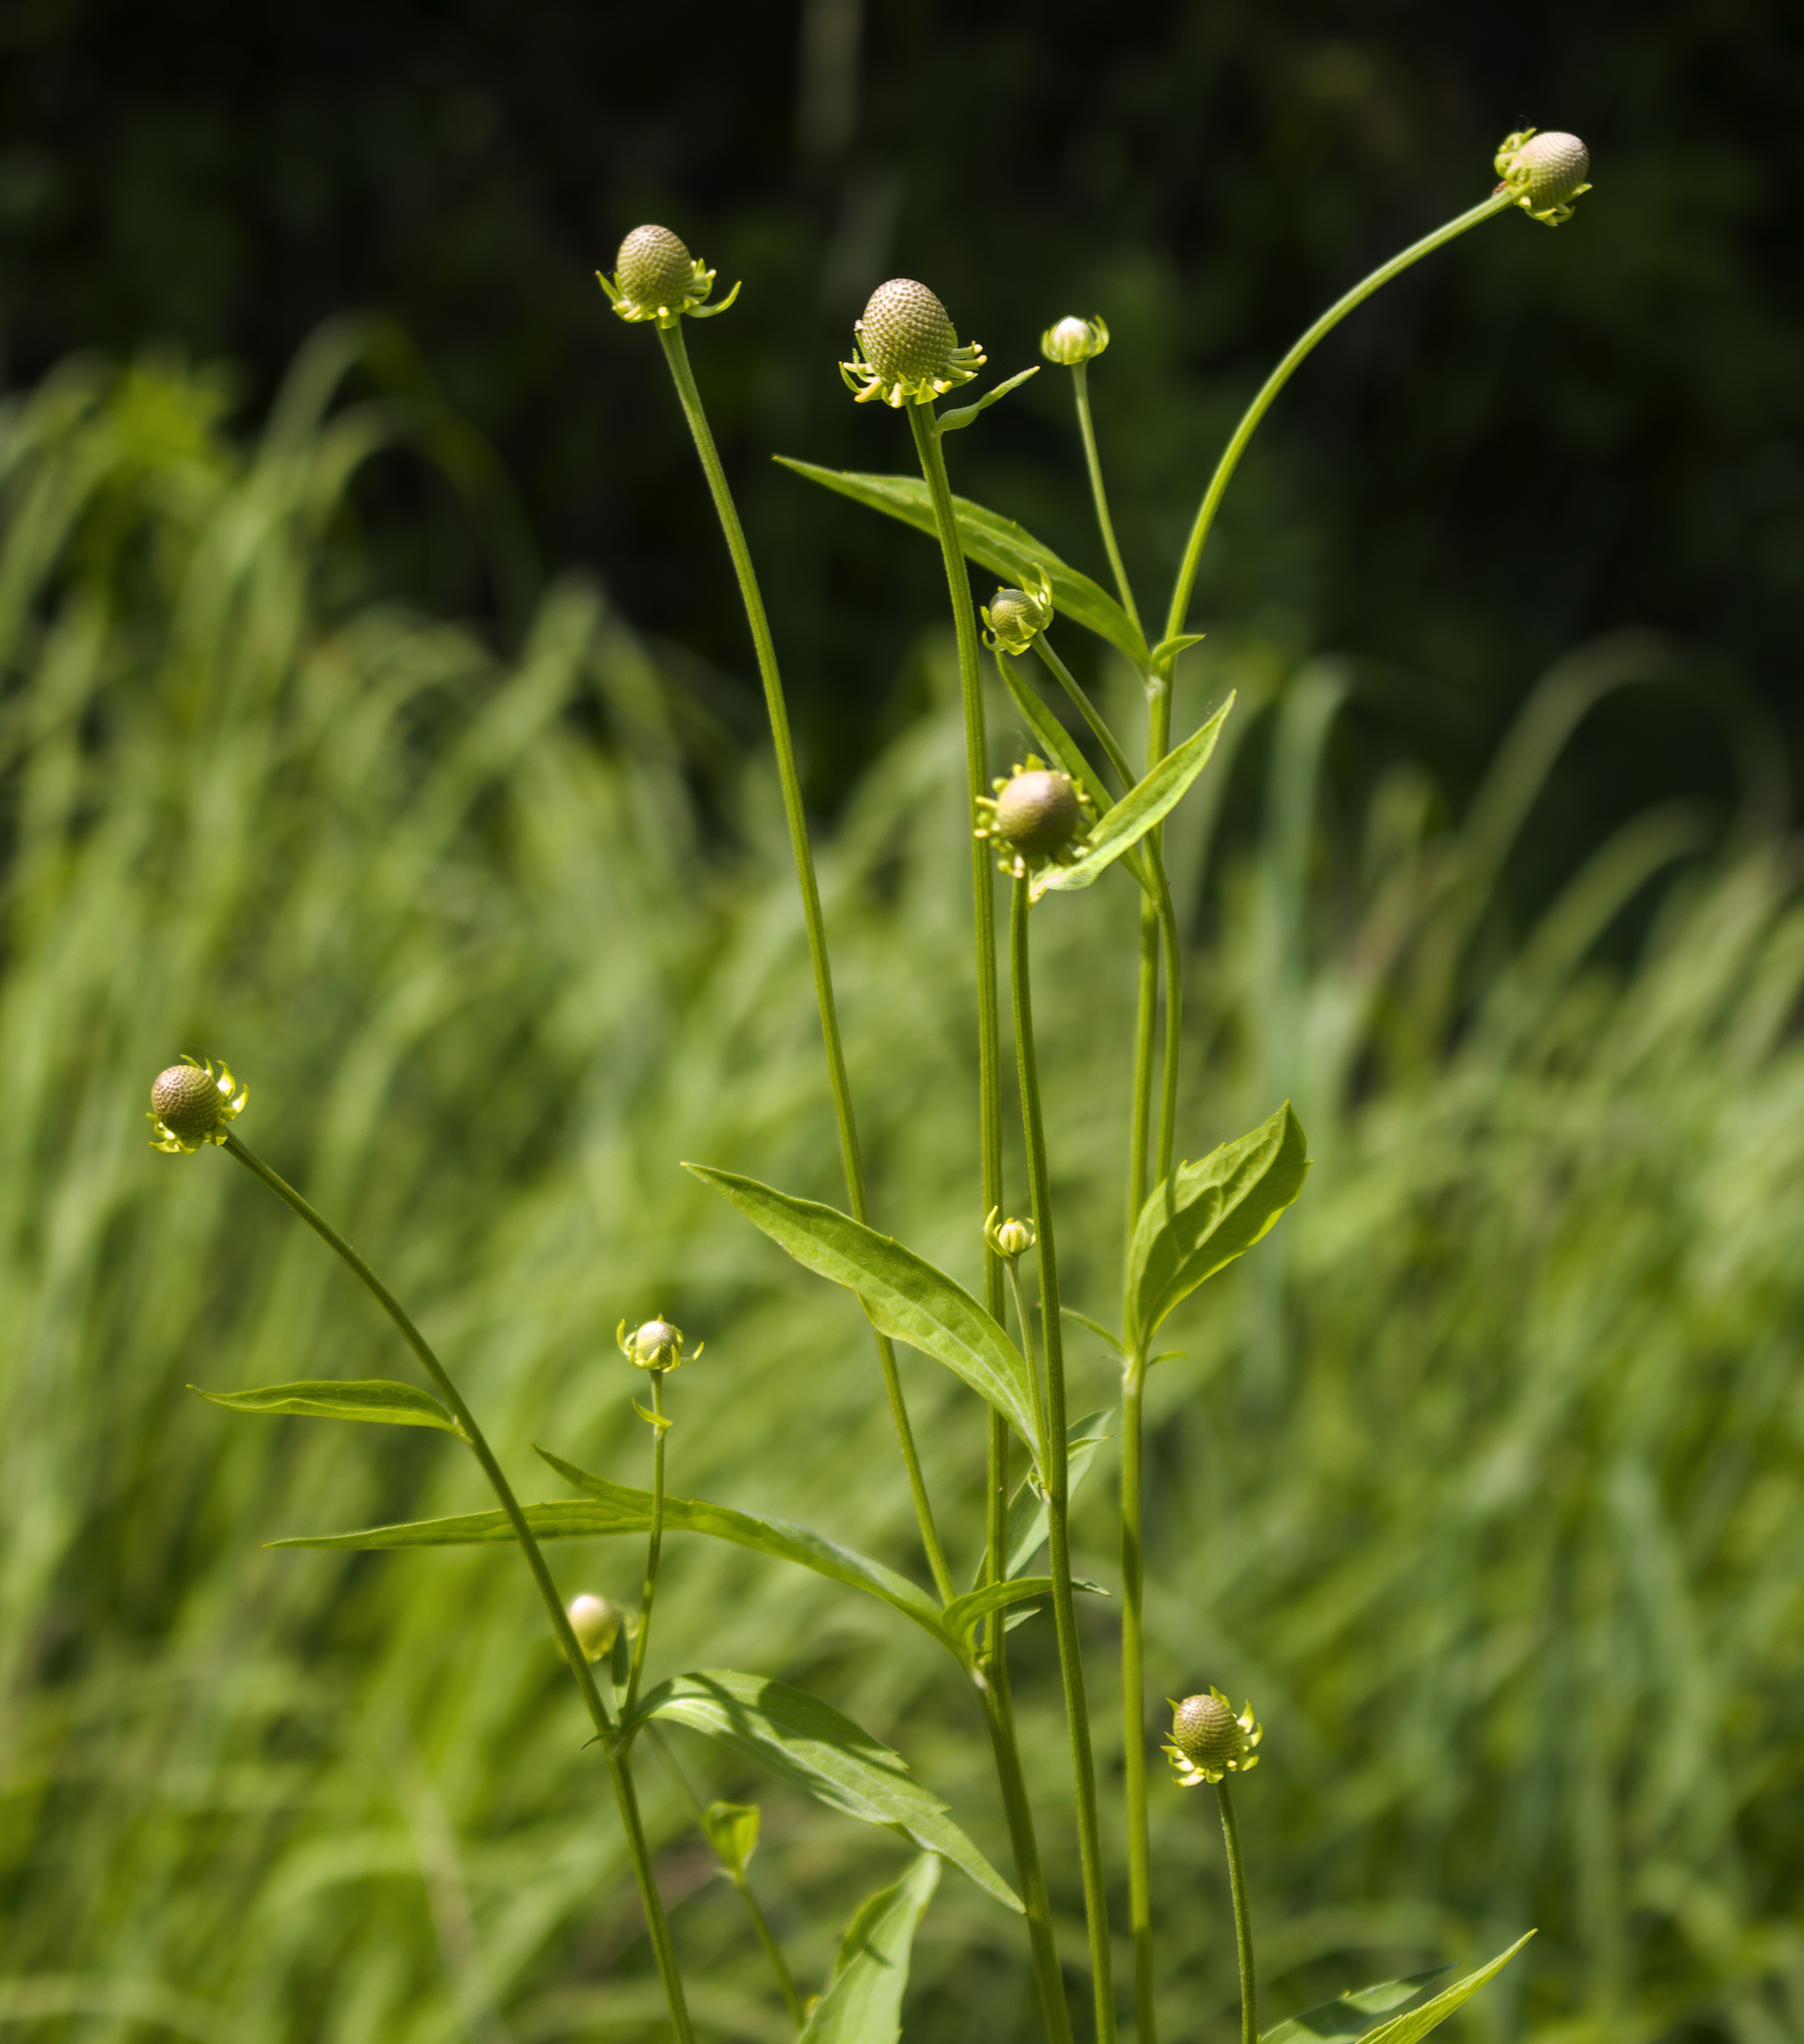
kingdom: Plantae
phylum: Tracheophyta
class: Magnoliopsida
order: Asterales
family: Asteraceae
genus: Ratibida
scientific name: Ratibida pinnata
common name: Drooping prairie-coneflower
